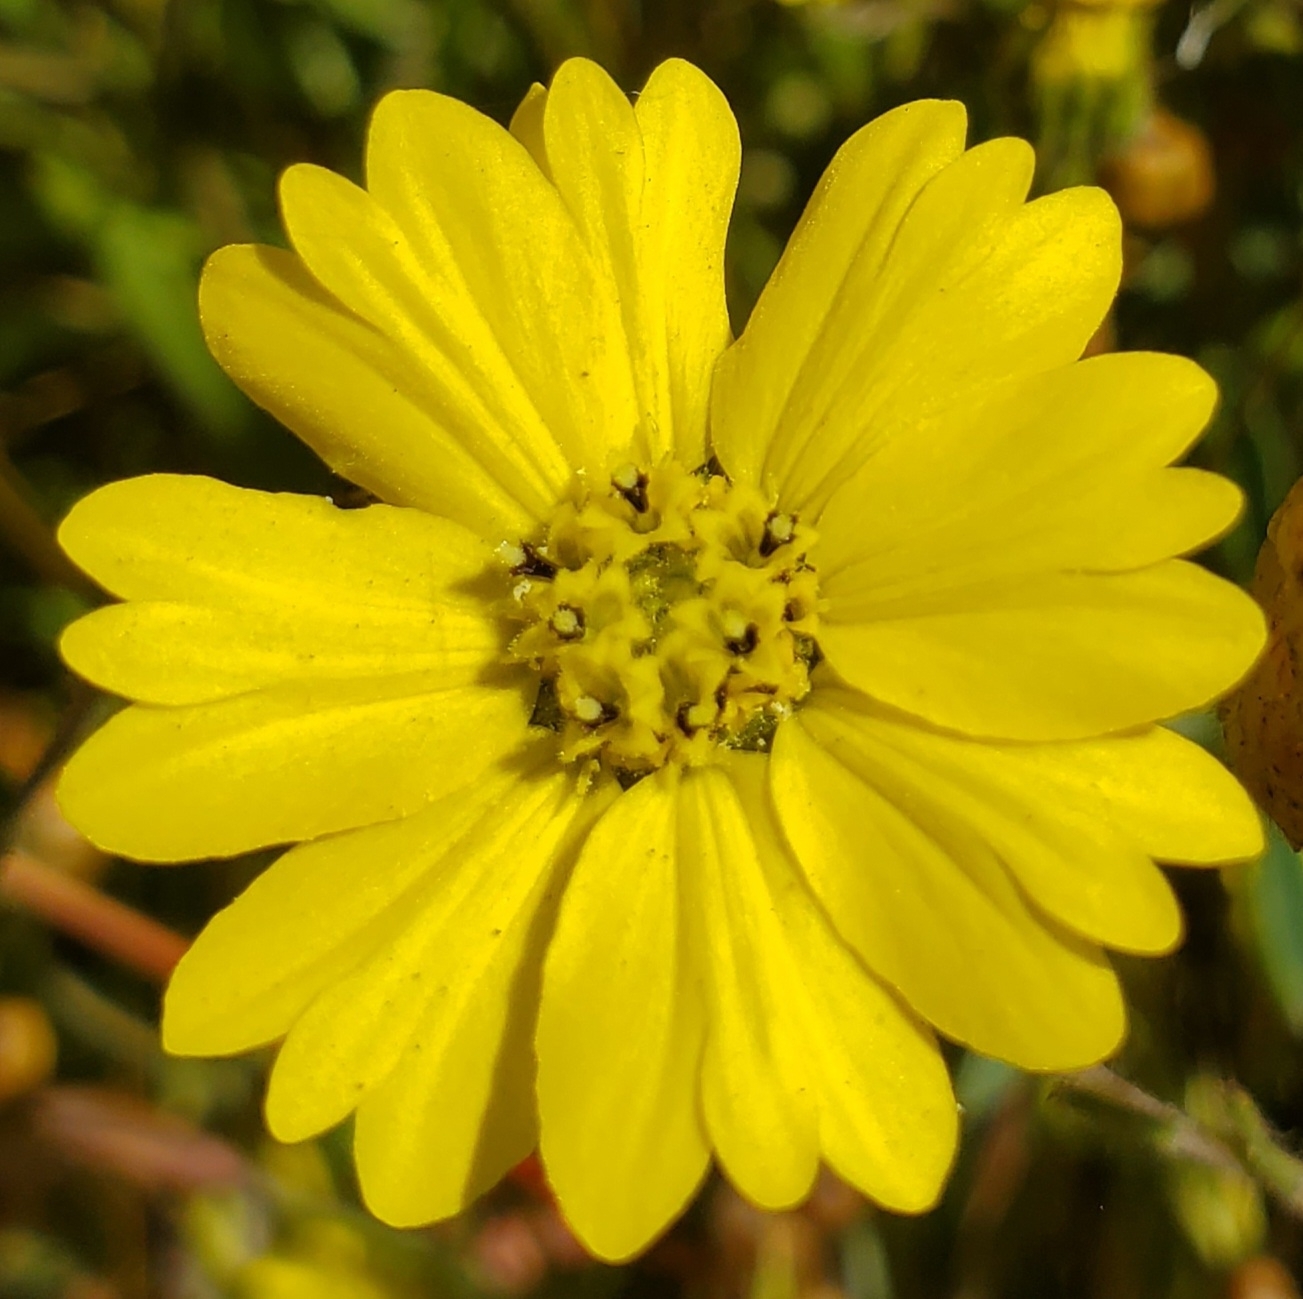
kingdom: Plantae
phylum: Tracheophyta
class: Magnoliopsida
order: Asterales
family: Asteraceae
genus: Hemizonia
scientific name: Hemizonia congesta
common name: Hayfield tarweed
